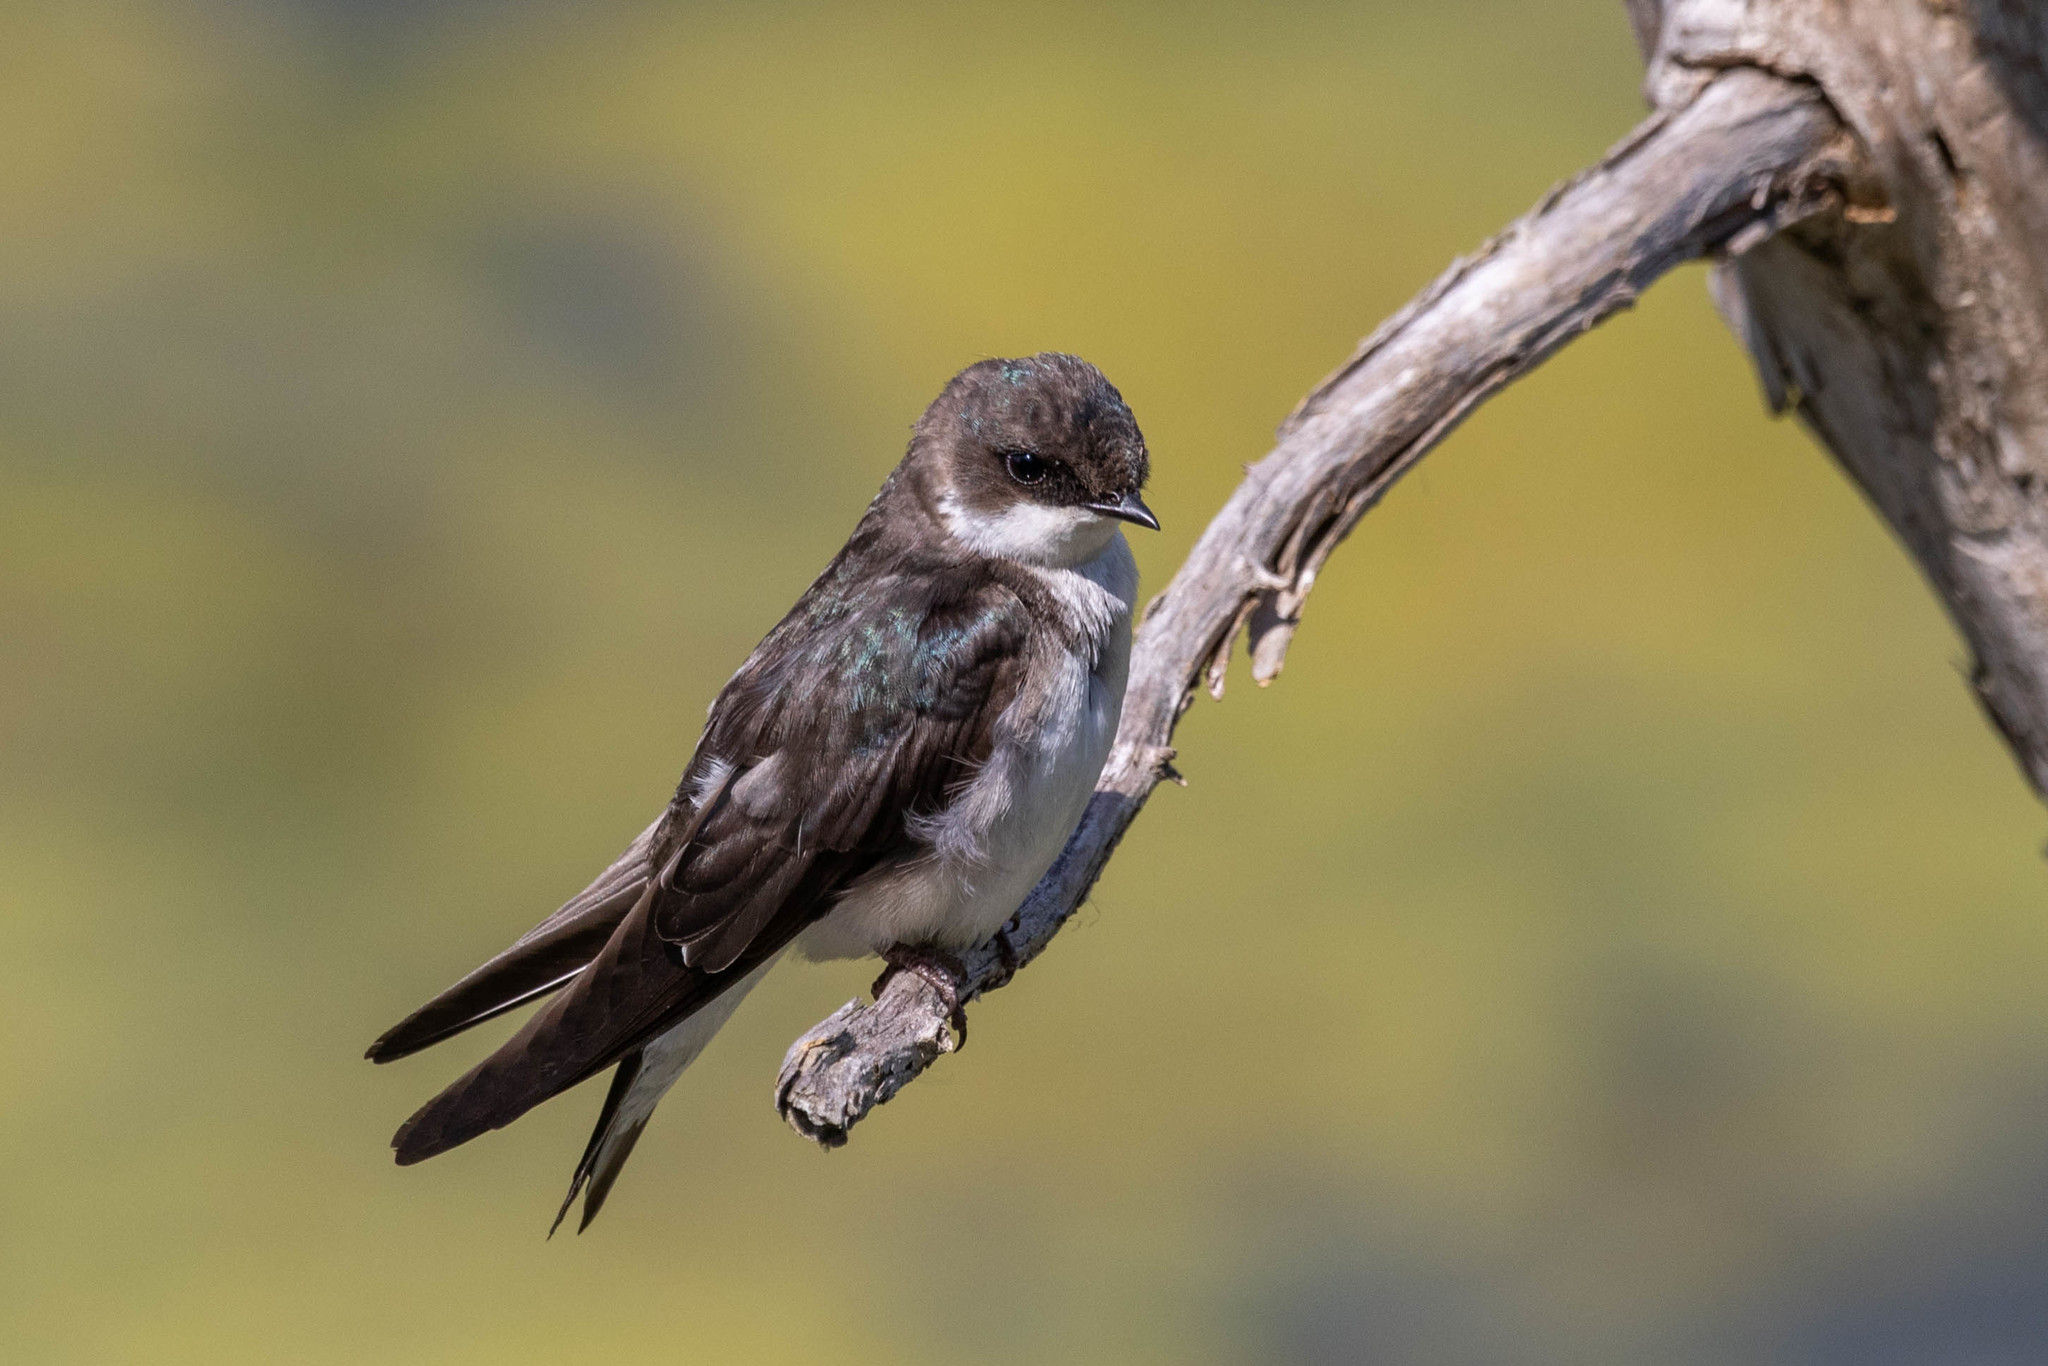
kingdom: Animalia
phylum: Chordata
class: Aves
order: Passeriformes
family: Hirundinidae
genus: Tachycineta
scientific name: Tachycineta bicolor
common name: Tree swallow
